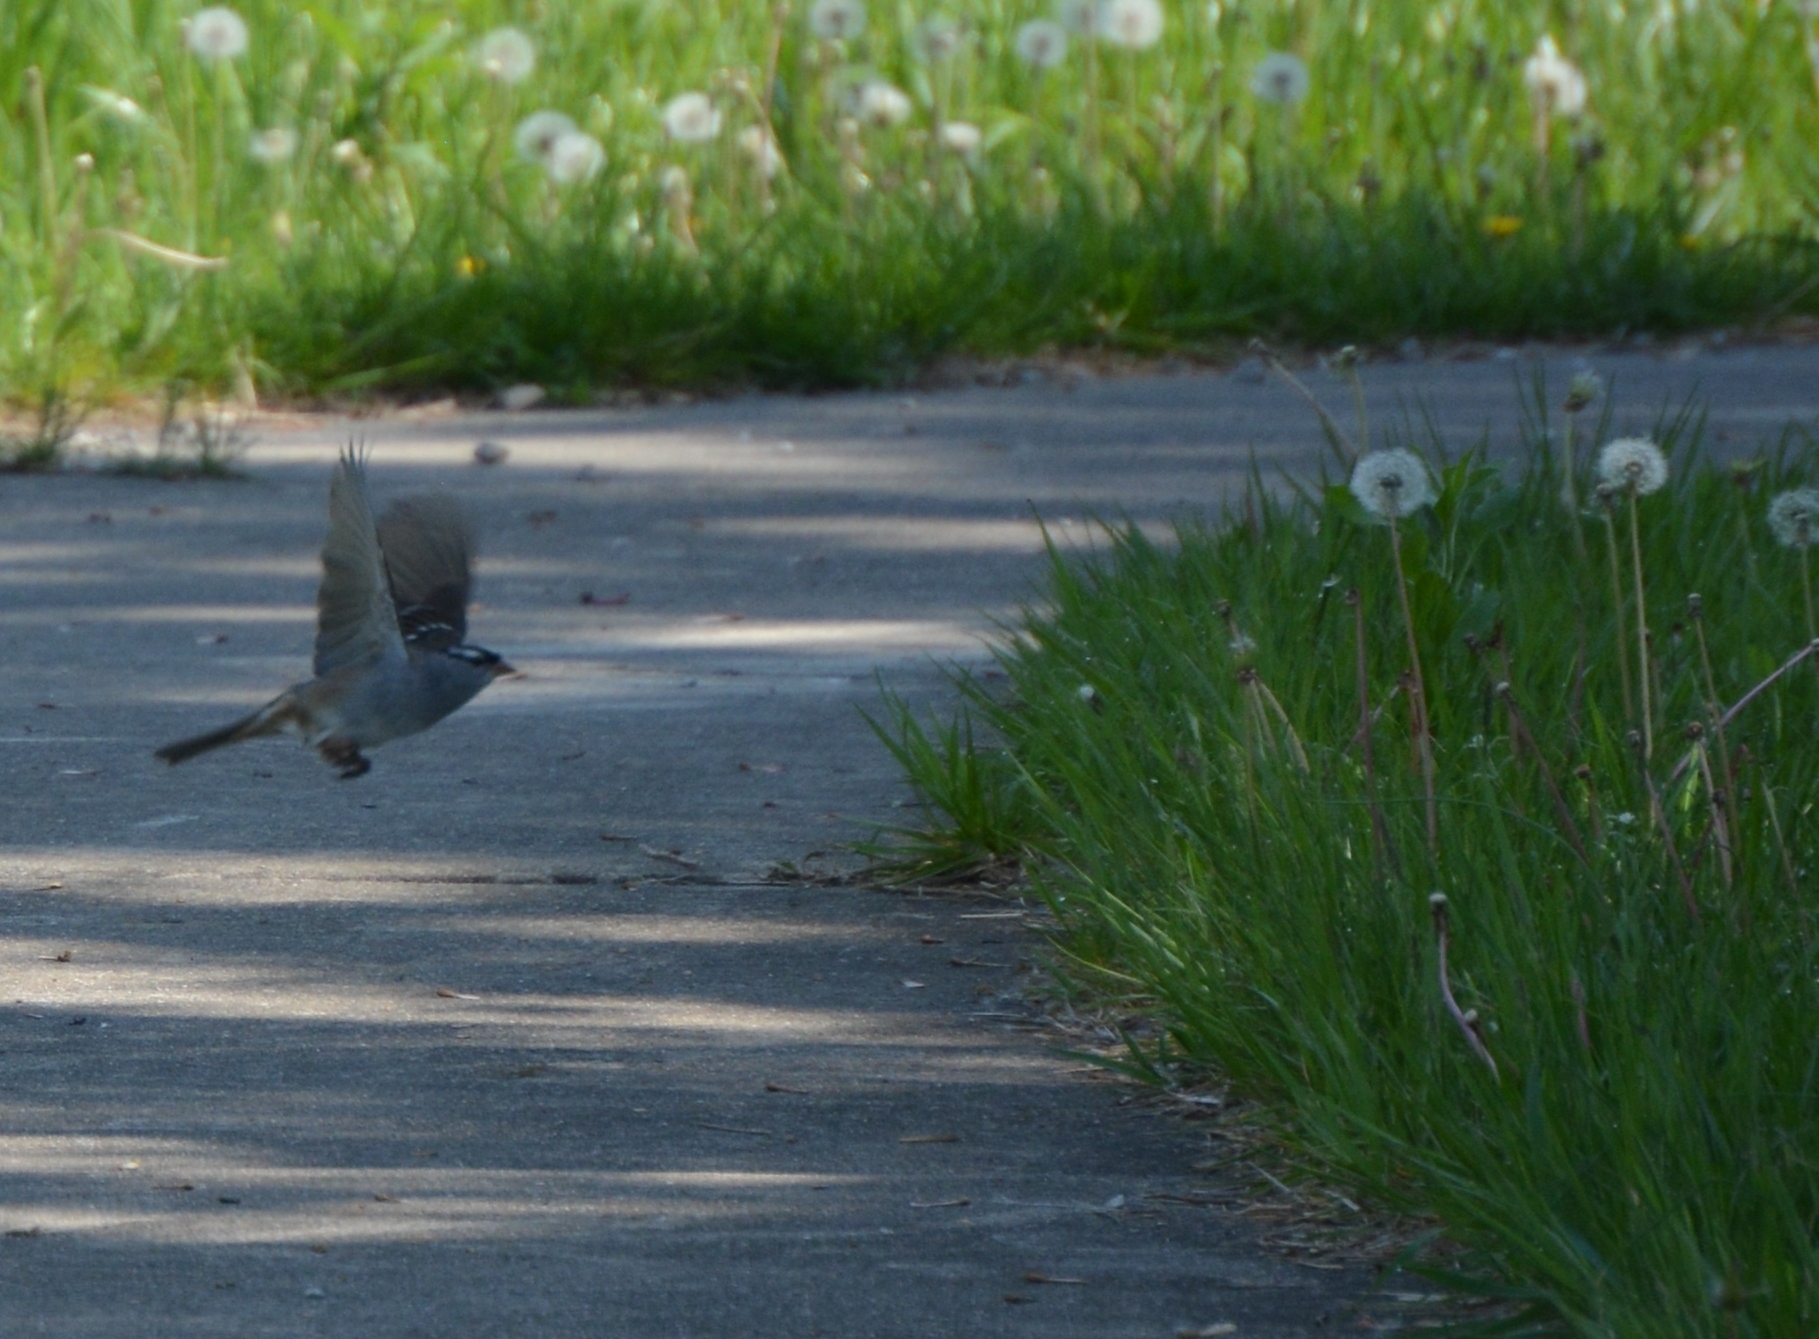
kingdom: Animalia
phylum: Chordata
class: Aves
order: Passeriformes
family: Passerellidae
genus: Zonotrichia
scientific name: Zonotrichia leucophrys
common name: White-crowned sparrow
